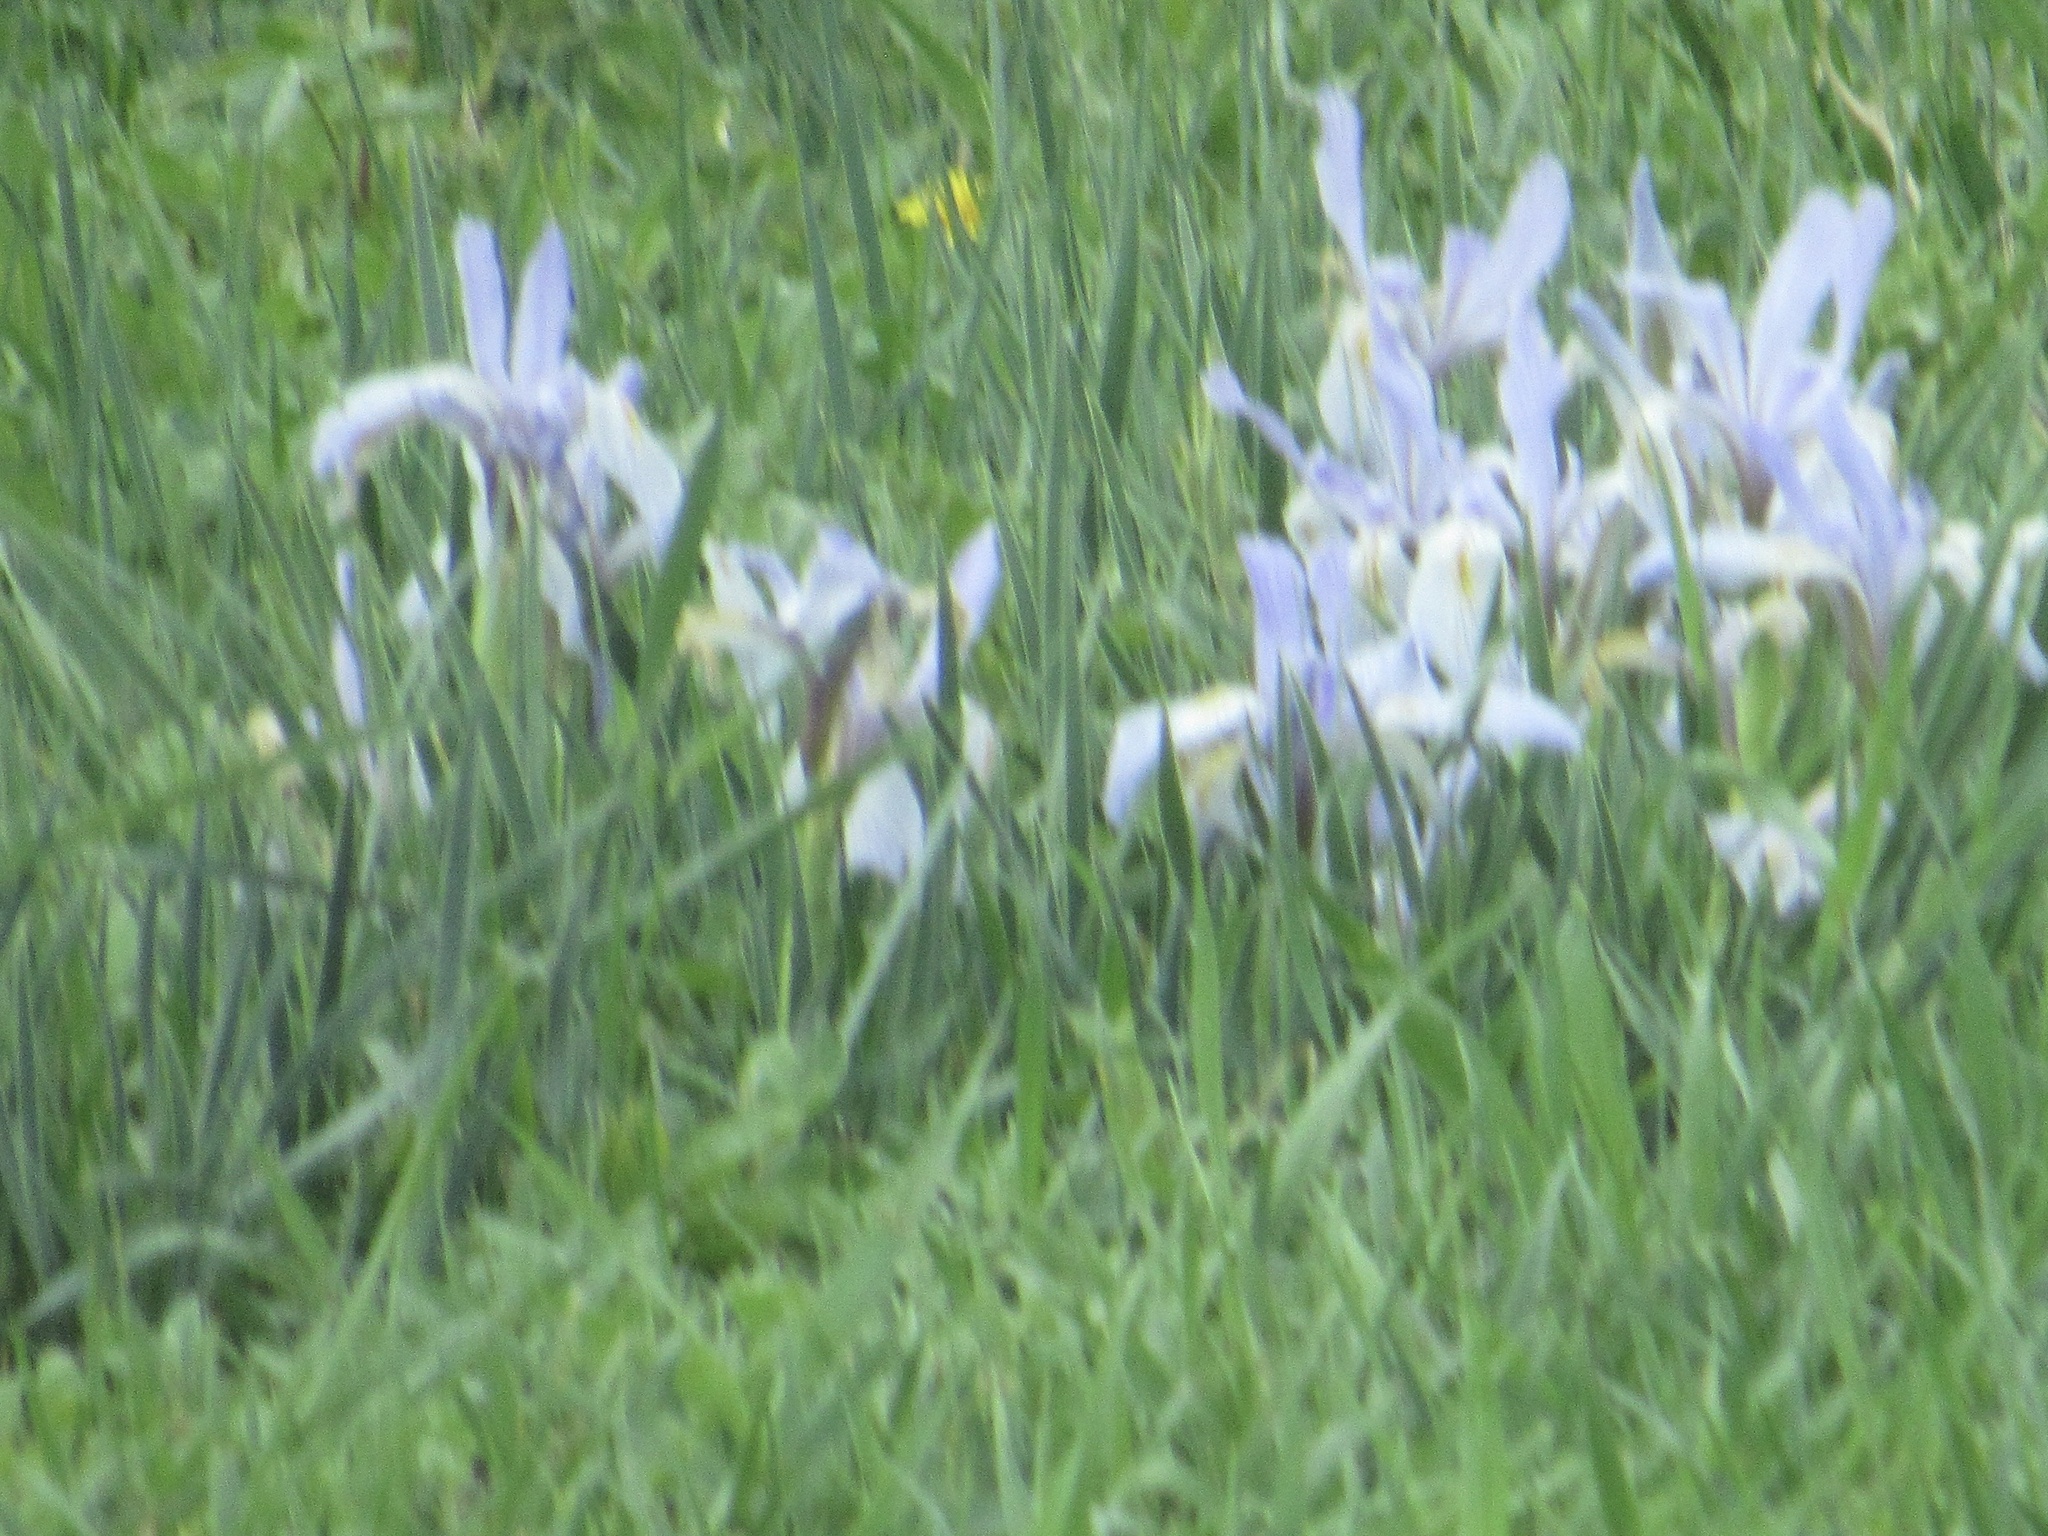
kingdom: Plantae
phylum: Tracheophyta
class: Liliopsida
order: Asparagales
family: Iridaceae
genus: Iris
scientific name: Iris missouriensis
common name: Rocky mountain iris
